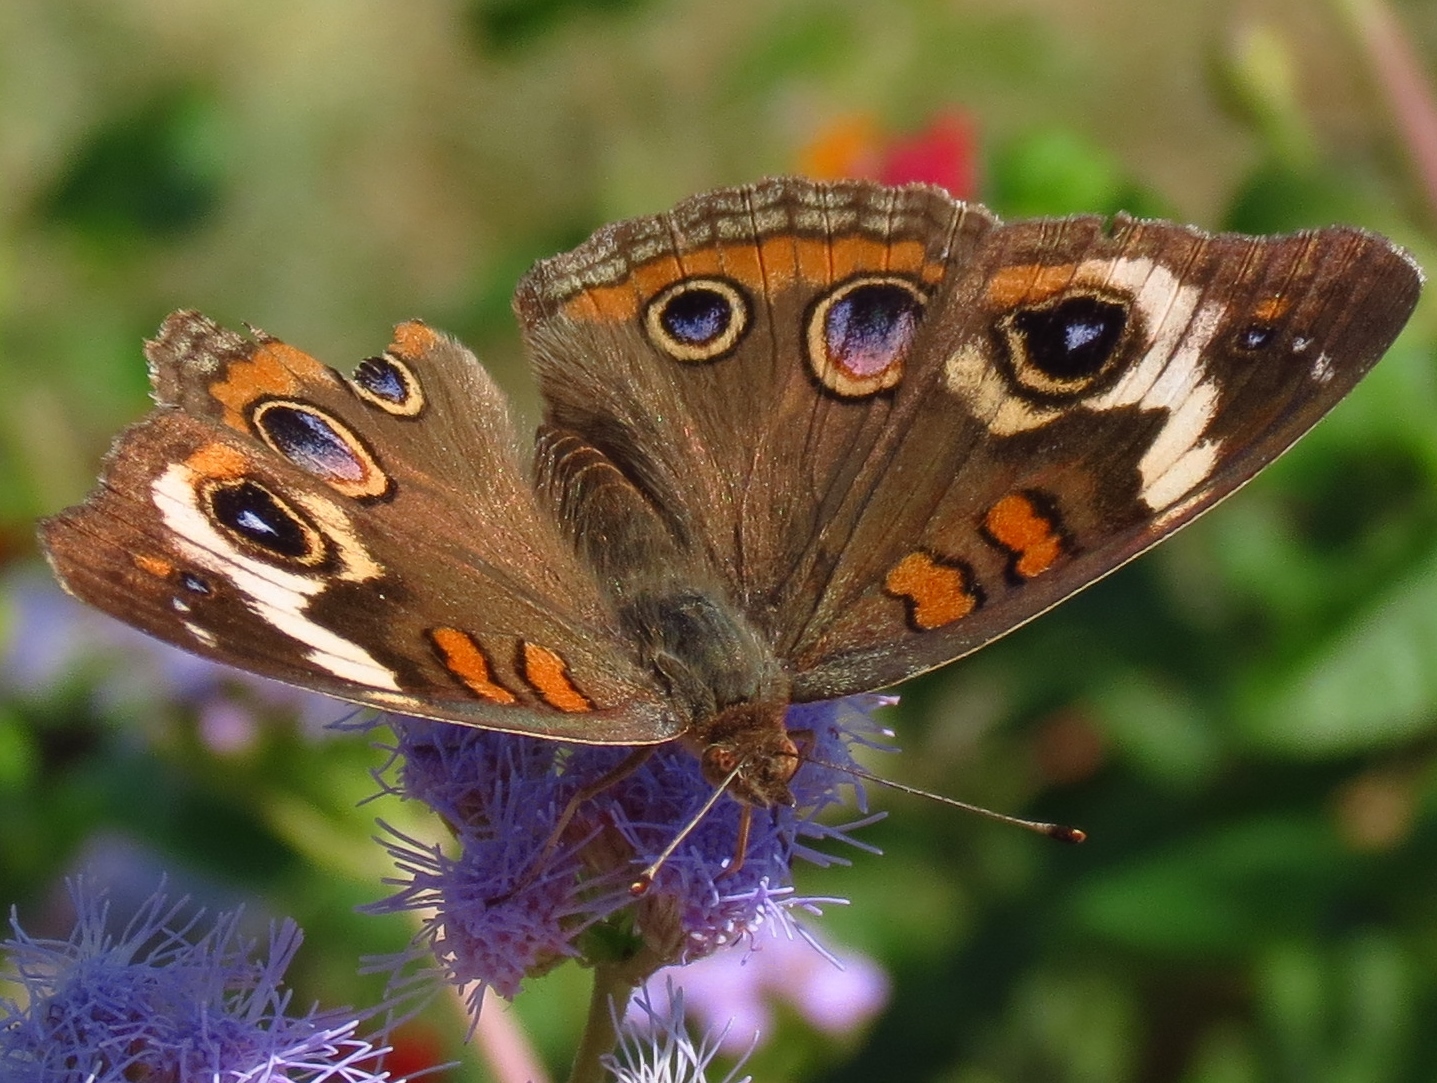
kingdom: Animalia
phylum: Arthropoda
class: Insecta
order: Lepidoptera
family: Nymphalidae
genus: Junonia
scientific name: Junonia coenia
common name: Common buckeye
